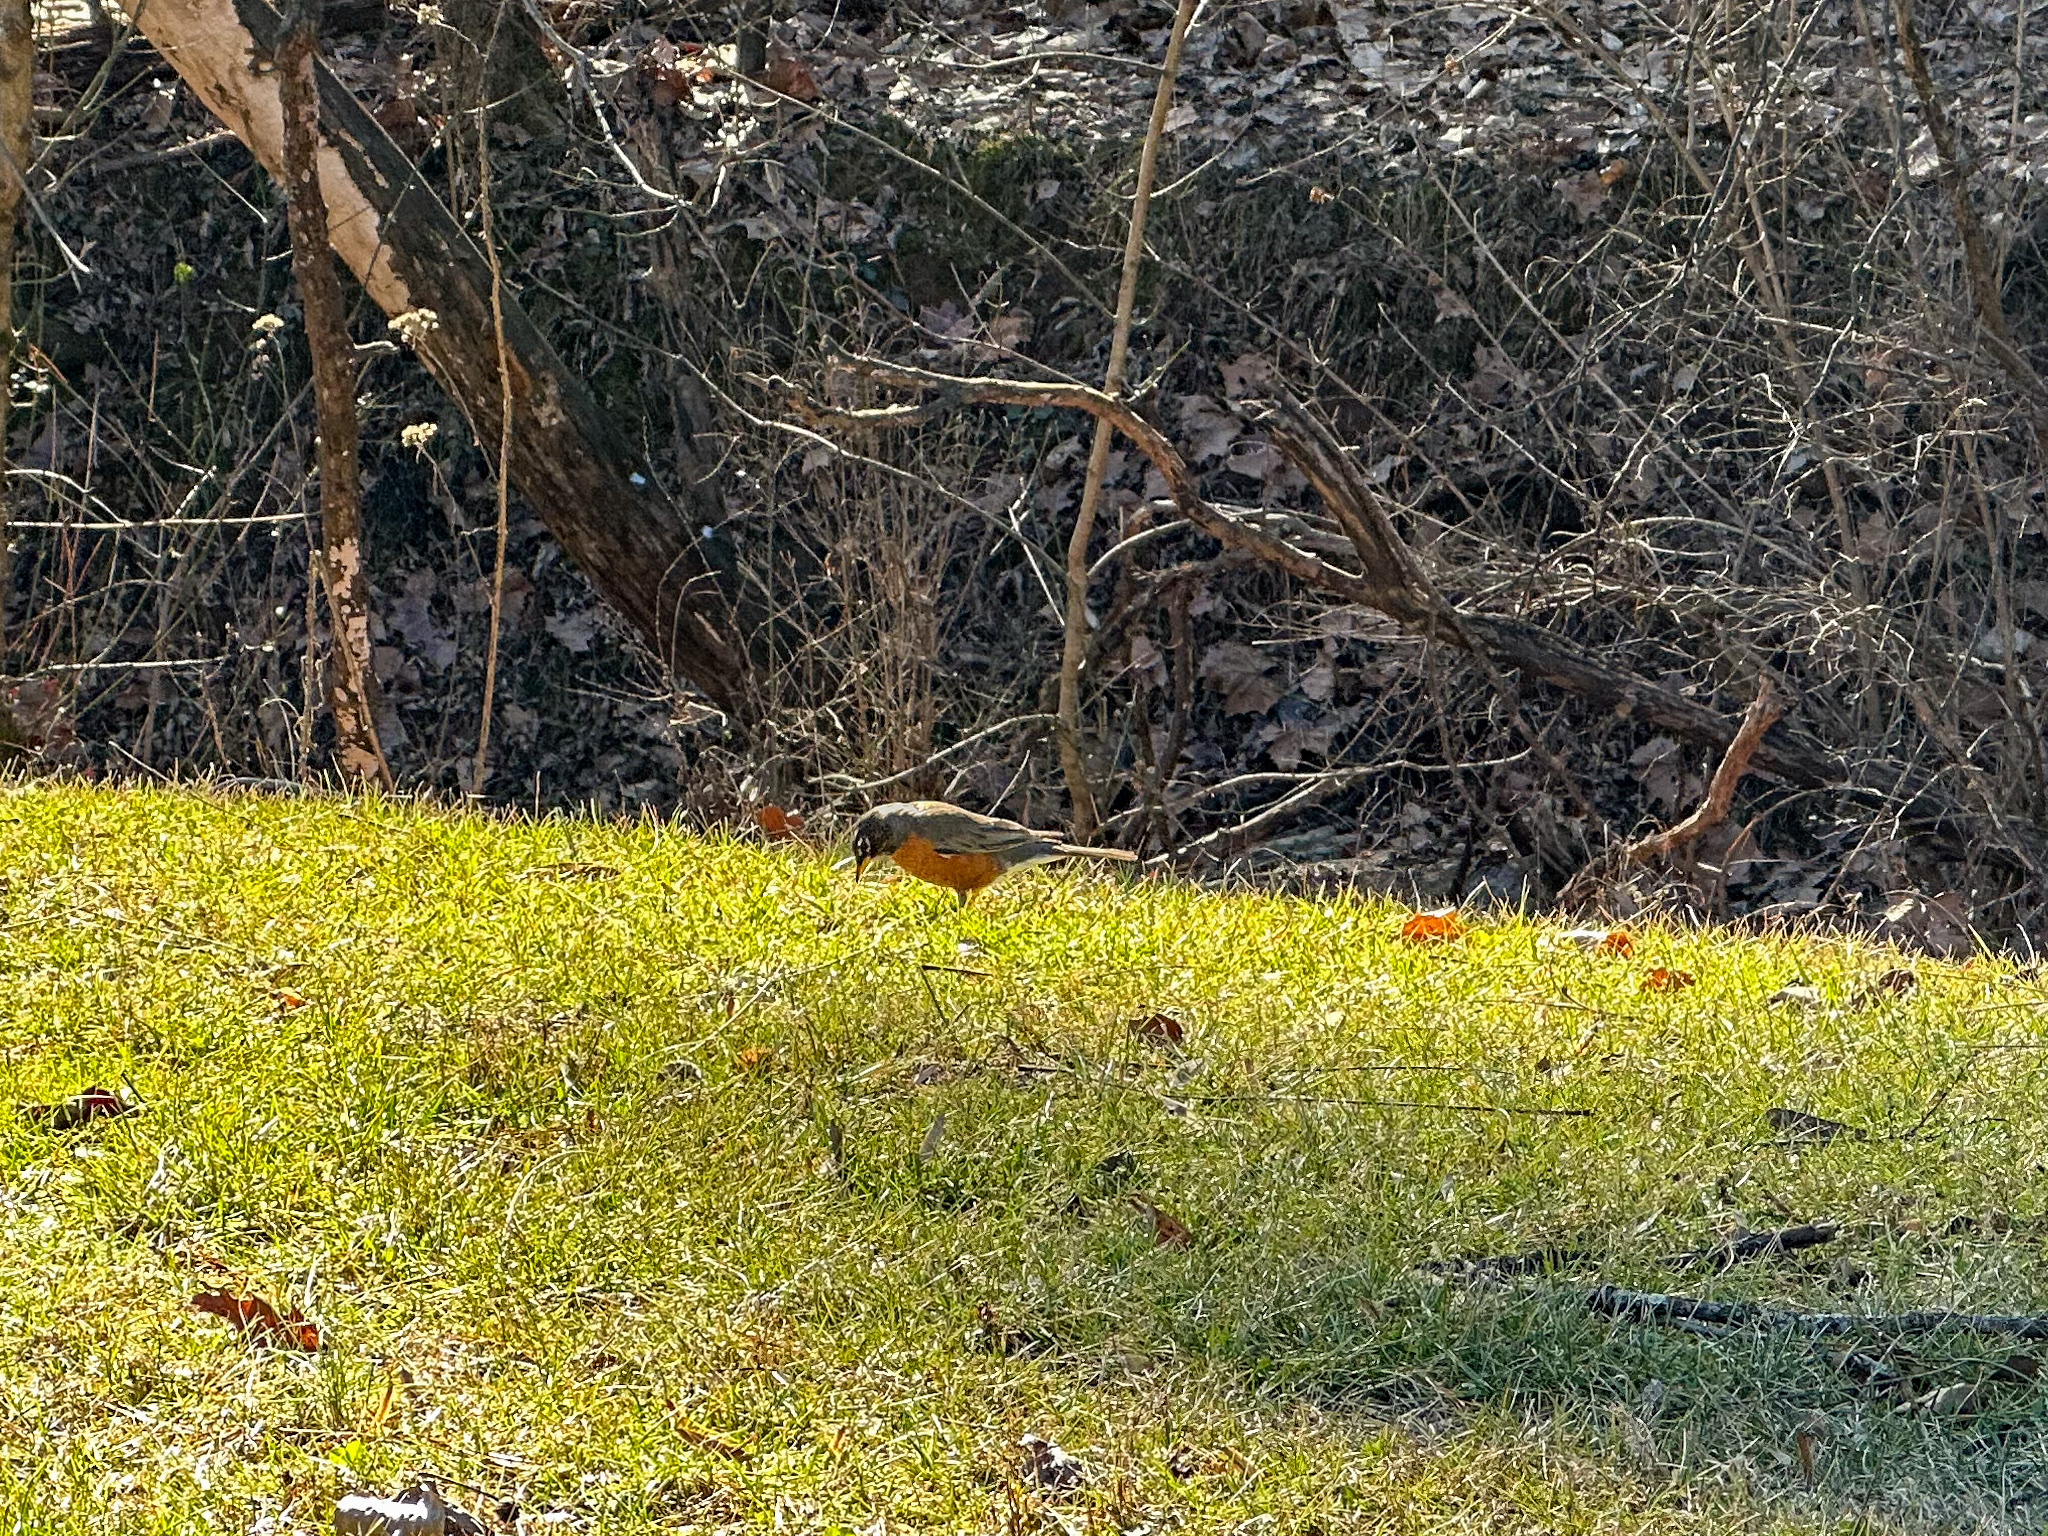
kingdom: Animalia
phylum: Chordata
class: Aves
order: Passeriformes
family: Turdidae
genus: Turdus
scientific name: Turdus migratorius
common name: American robin
